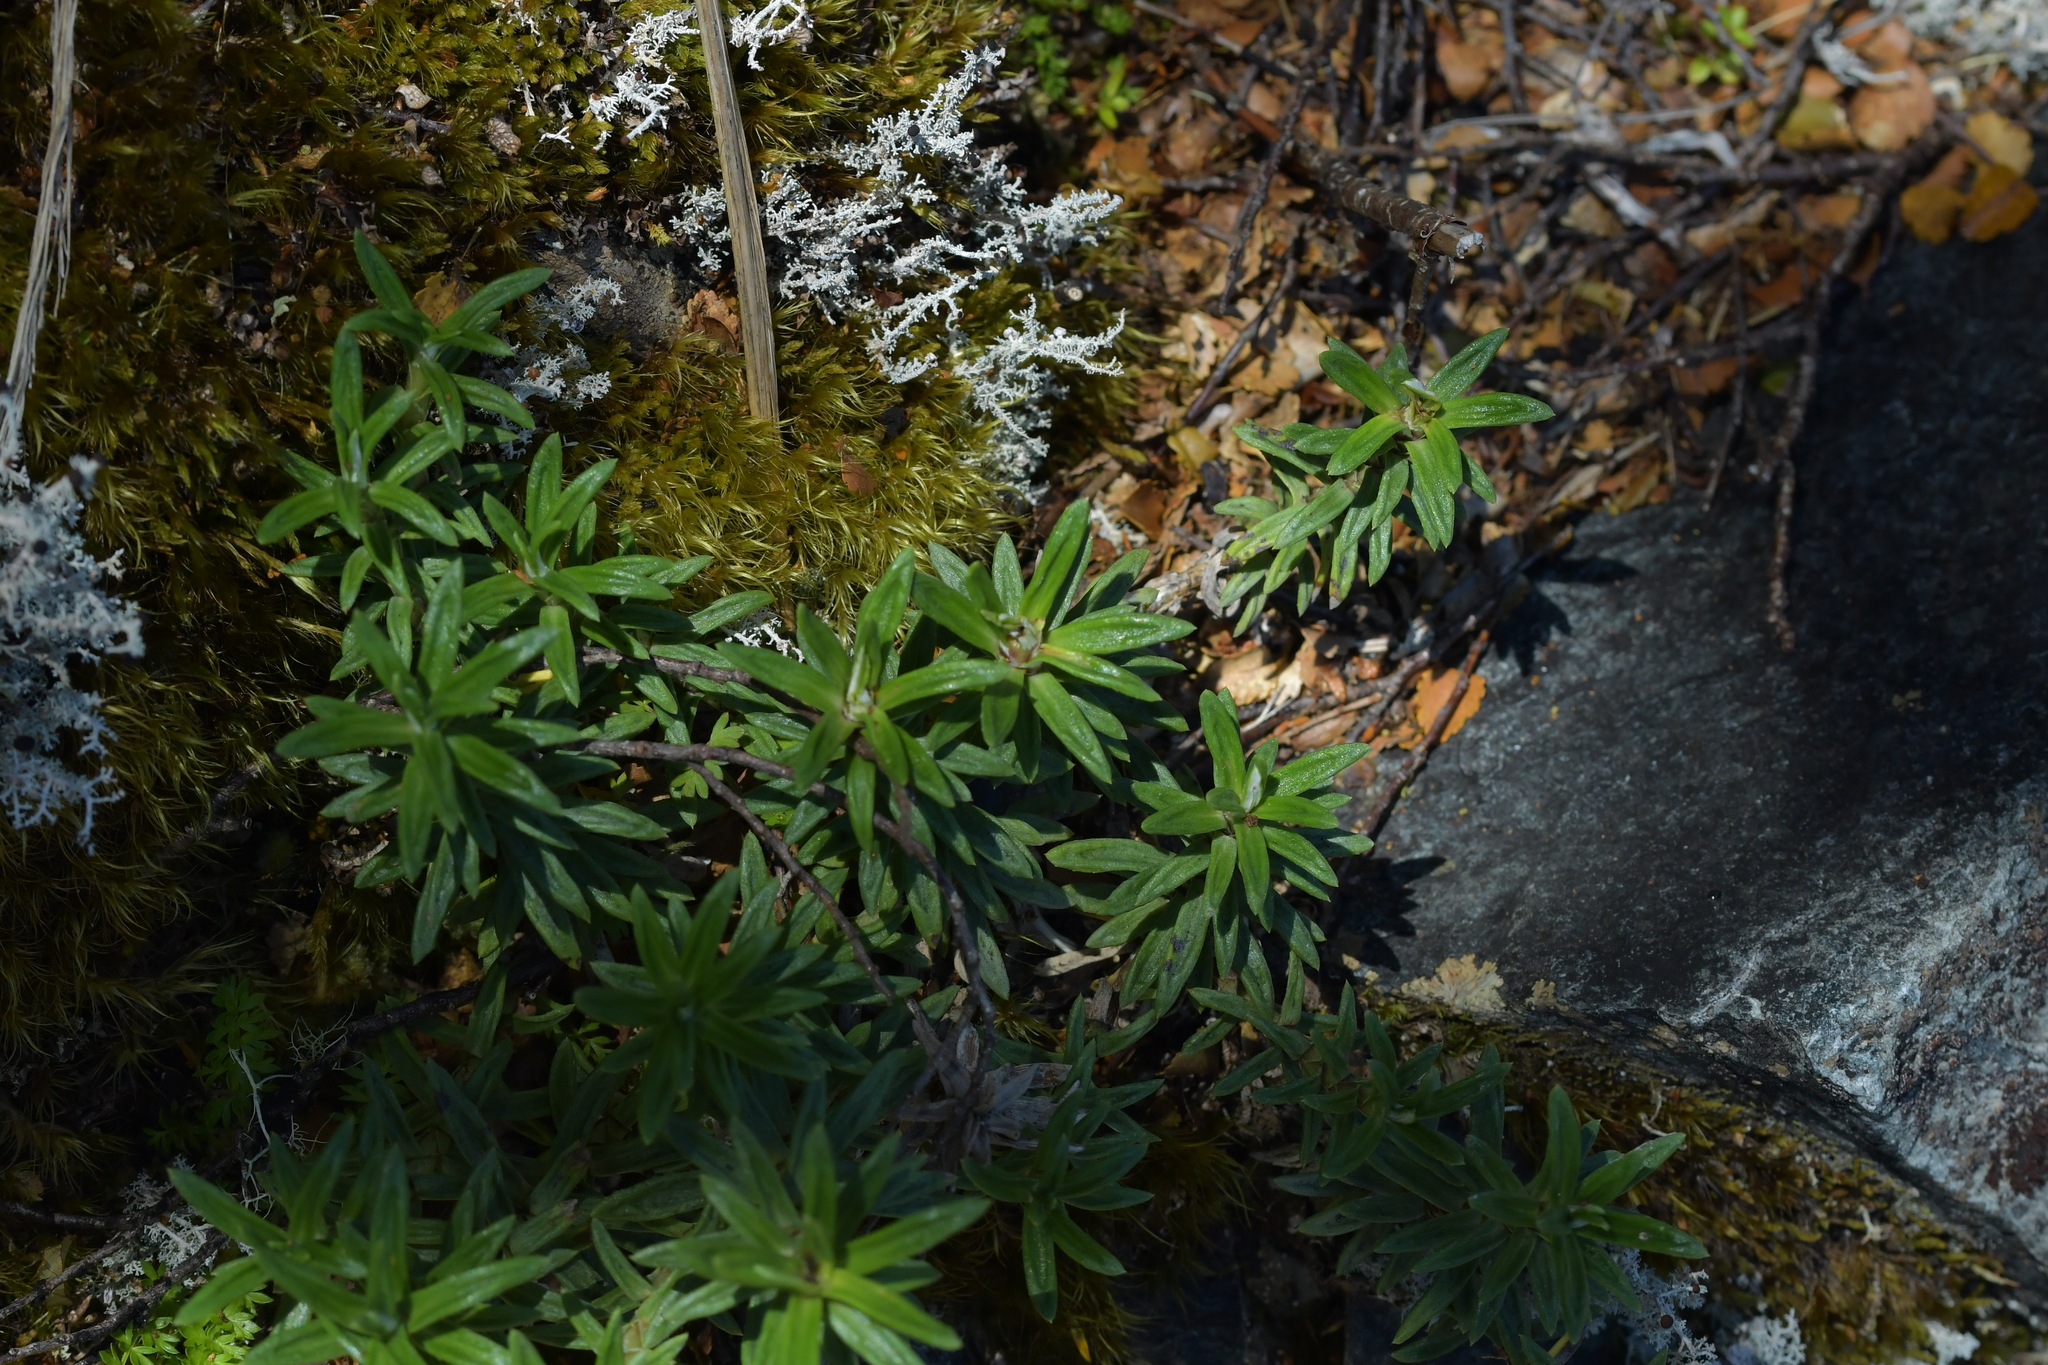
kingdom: Plantae
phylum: Tracheophyta
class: Magnoliopsida
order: Asterales
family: Asteraceae
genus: Celmisia
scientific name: Celmisia walkeri
